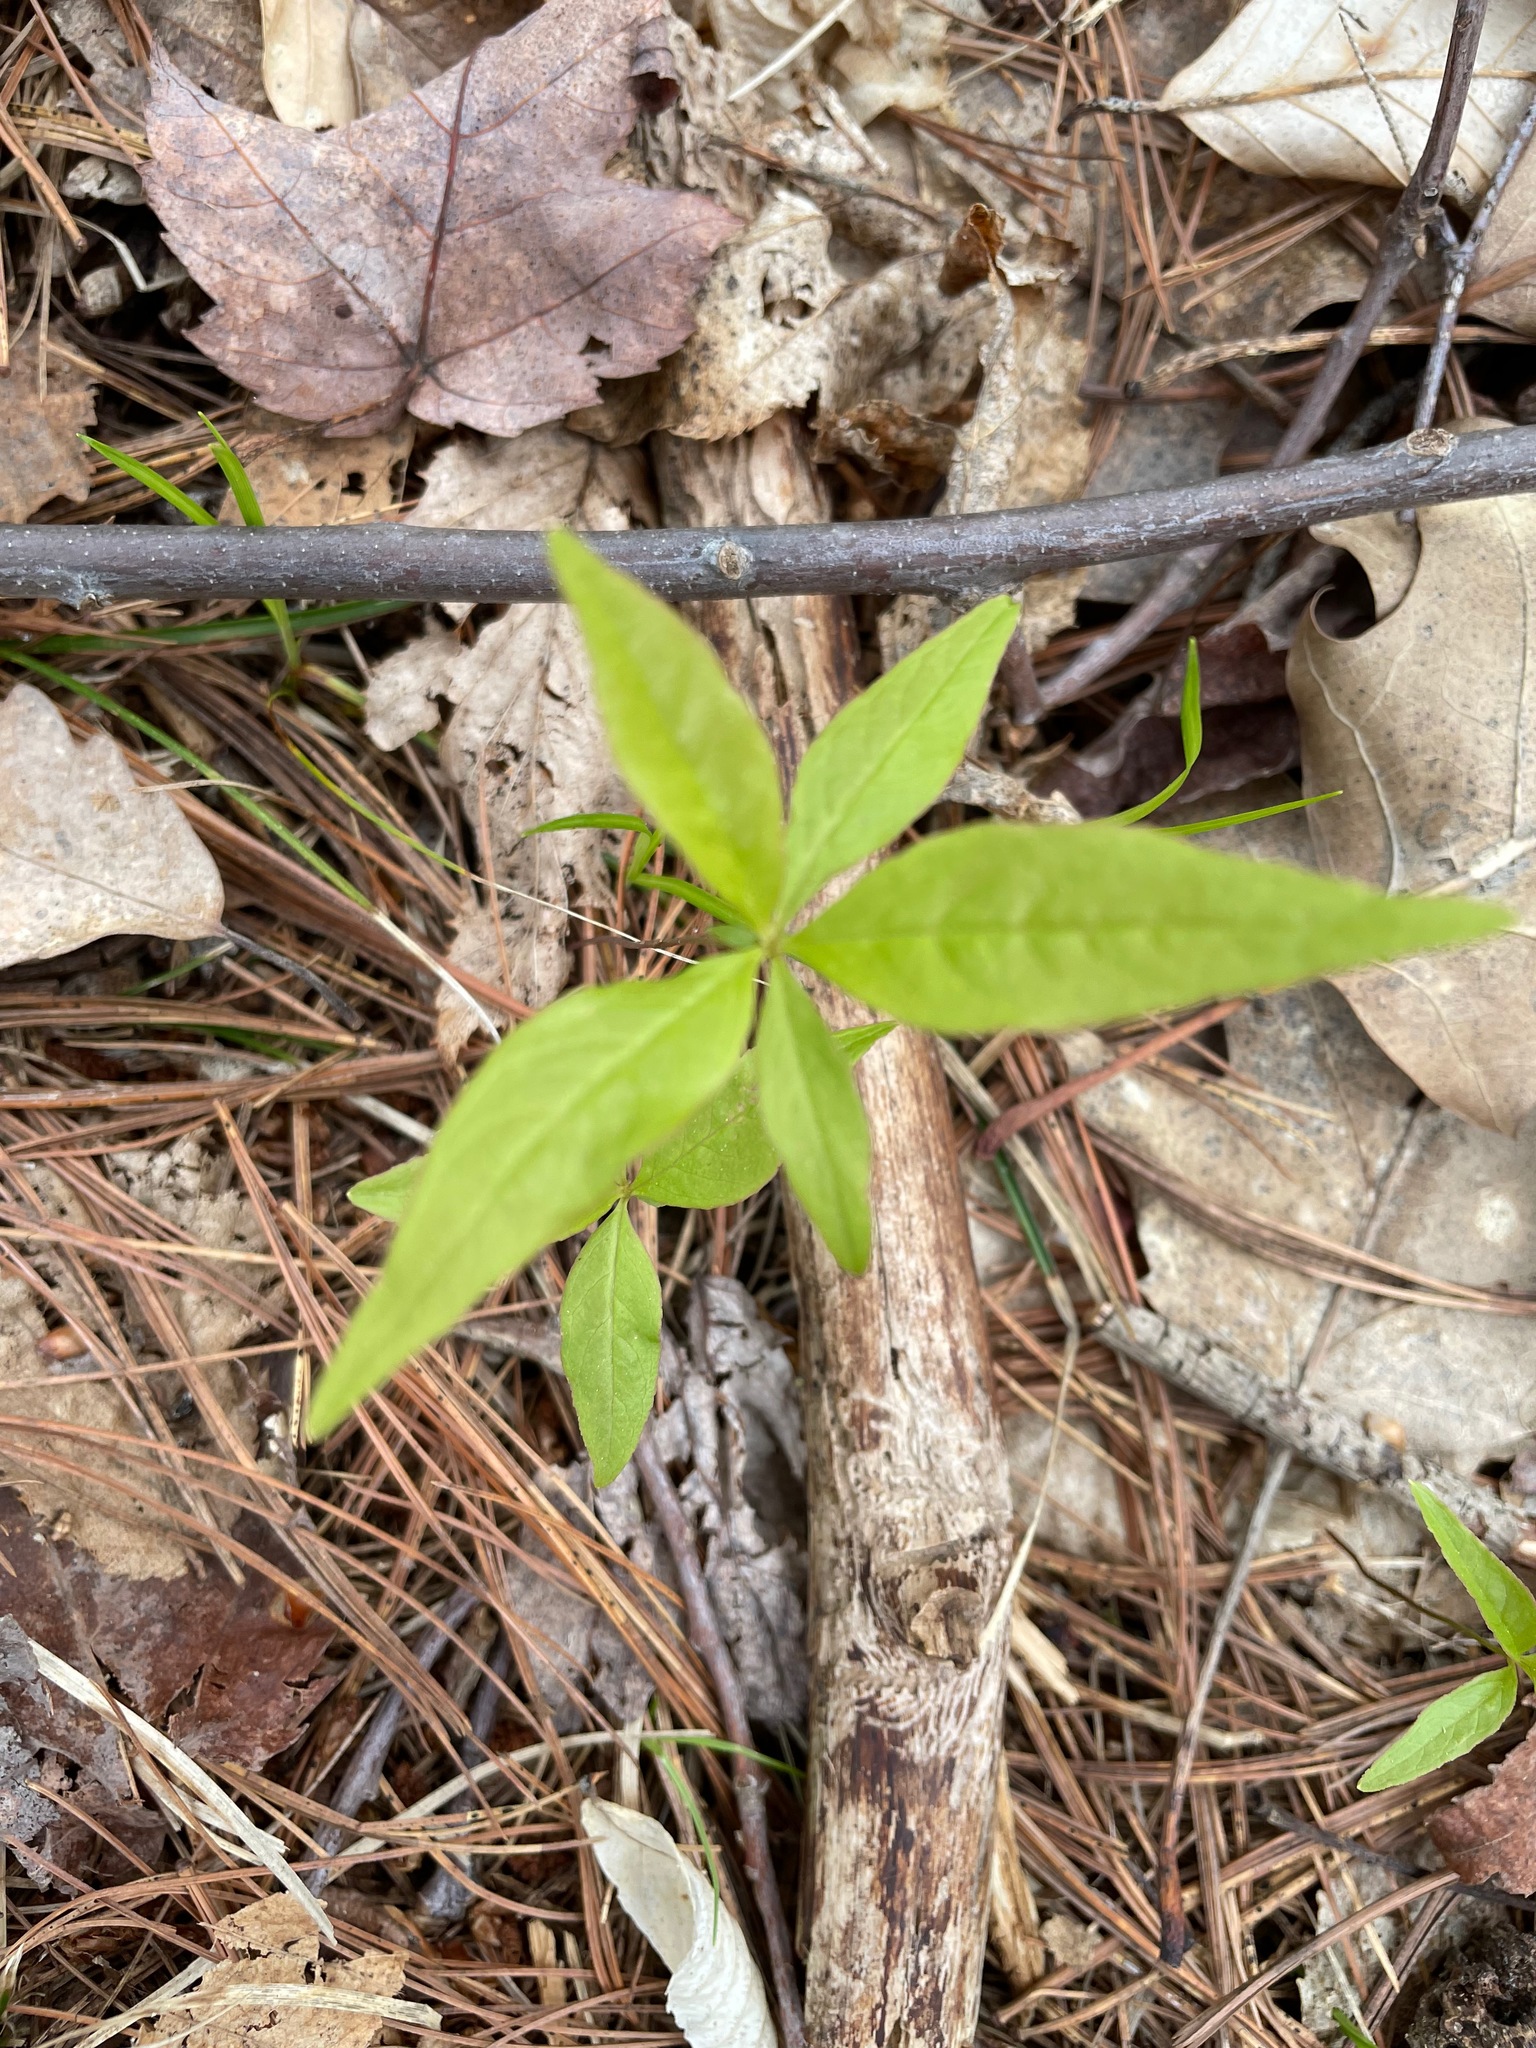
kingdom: Plantae
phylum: Tracheophyta
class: Magnoliopsida
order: Ericales
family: Primulaceae
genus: Lysimachia
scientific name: Lysimachia borealis
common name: American starflower
